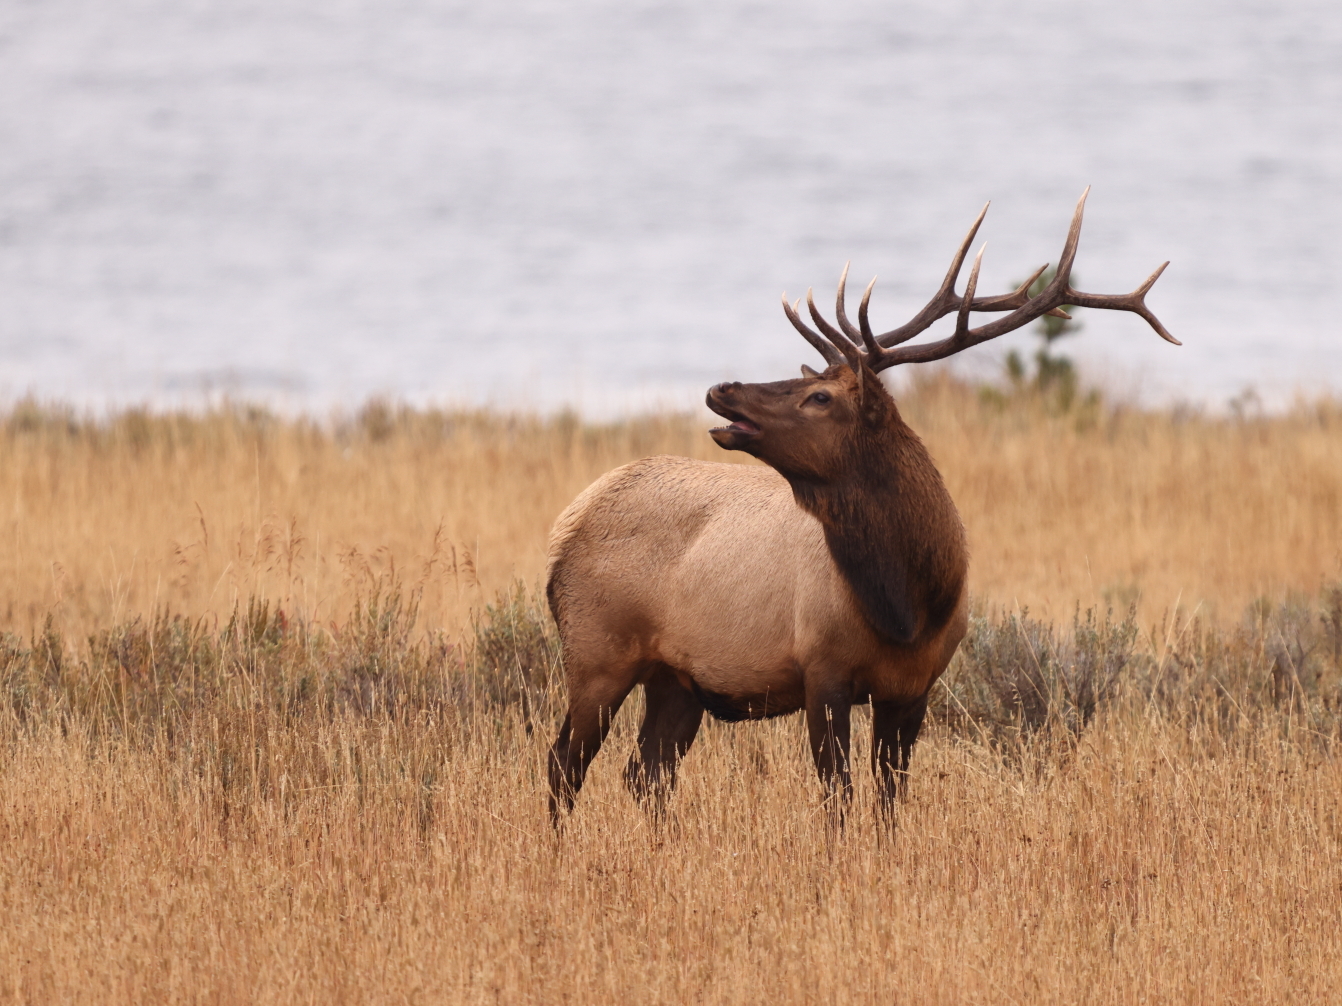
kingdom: Animalia
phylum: Chordata
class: Mammalia
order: Artiodactyla
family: Cervidae
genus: Cervus
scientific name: Cervus elaphus
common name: Red deer
